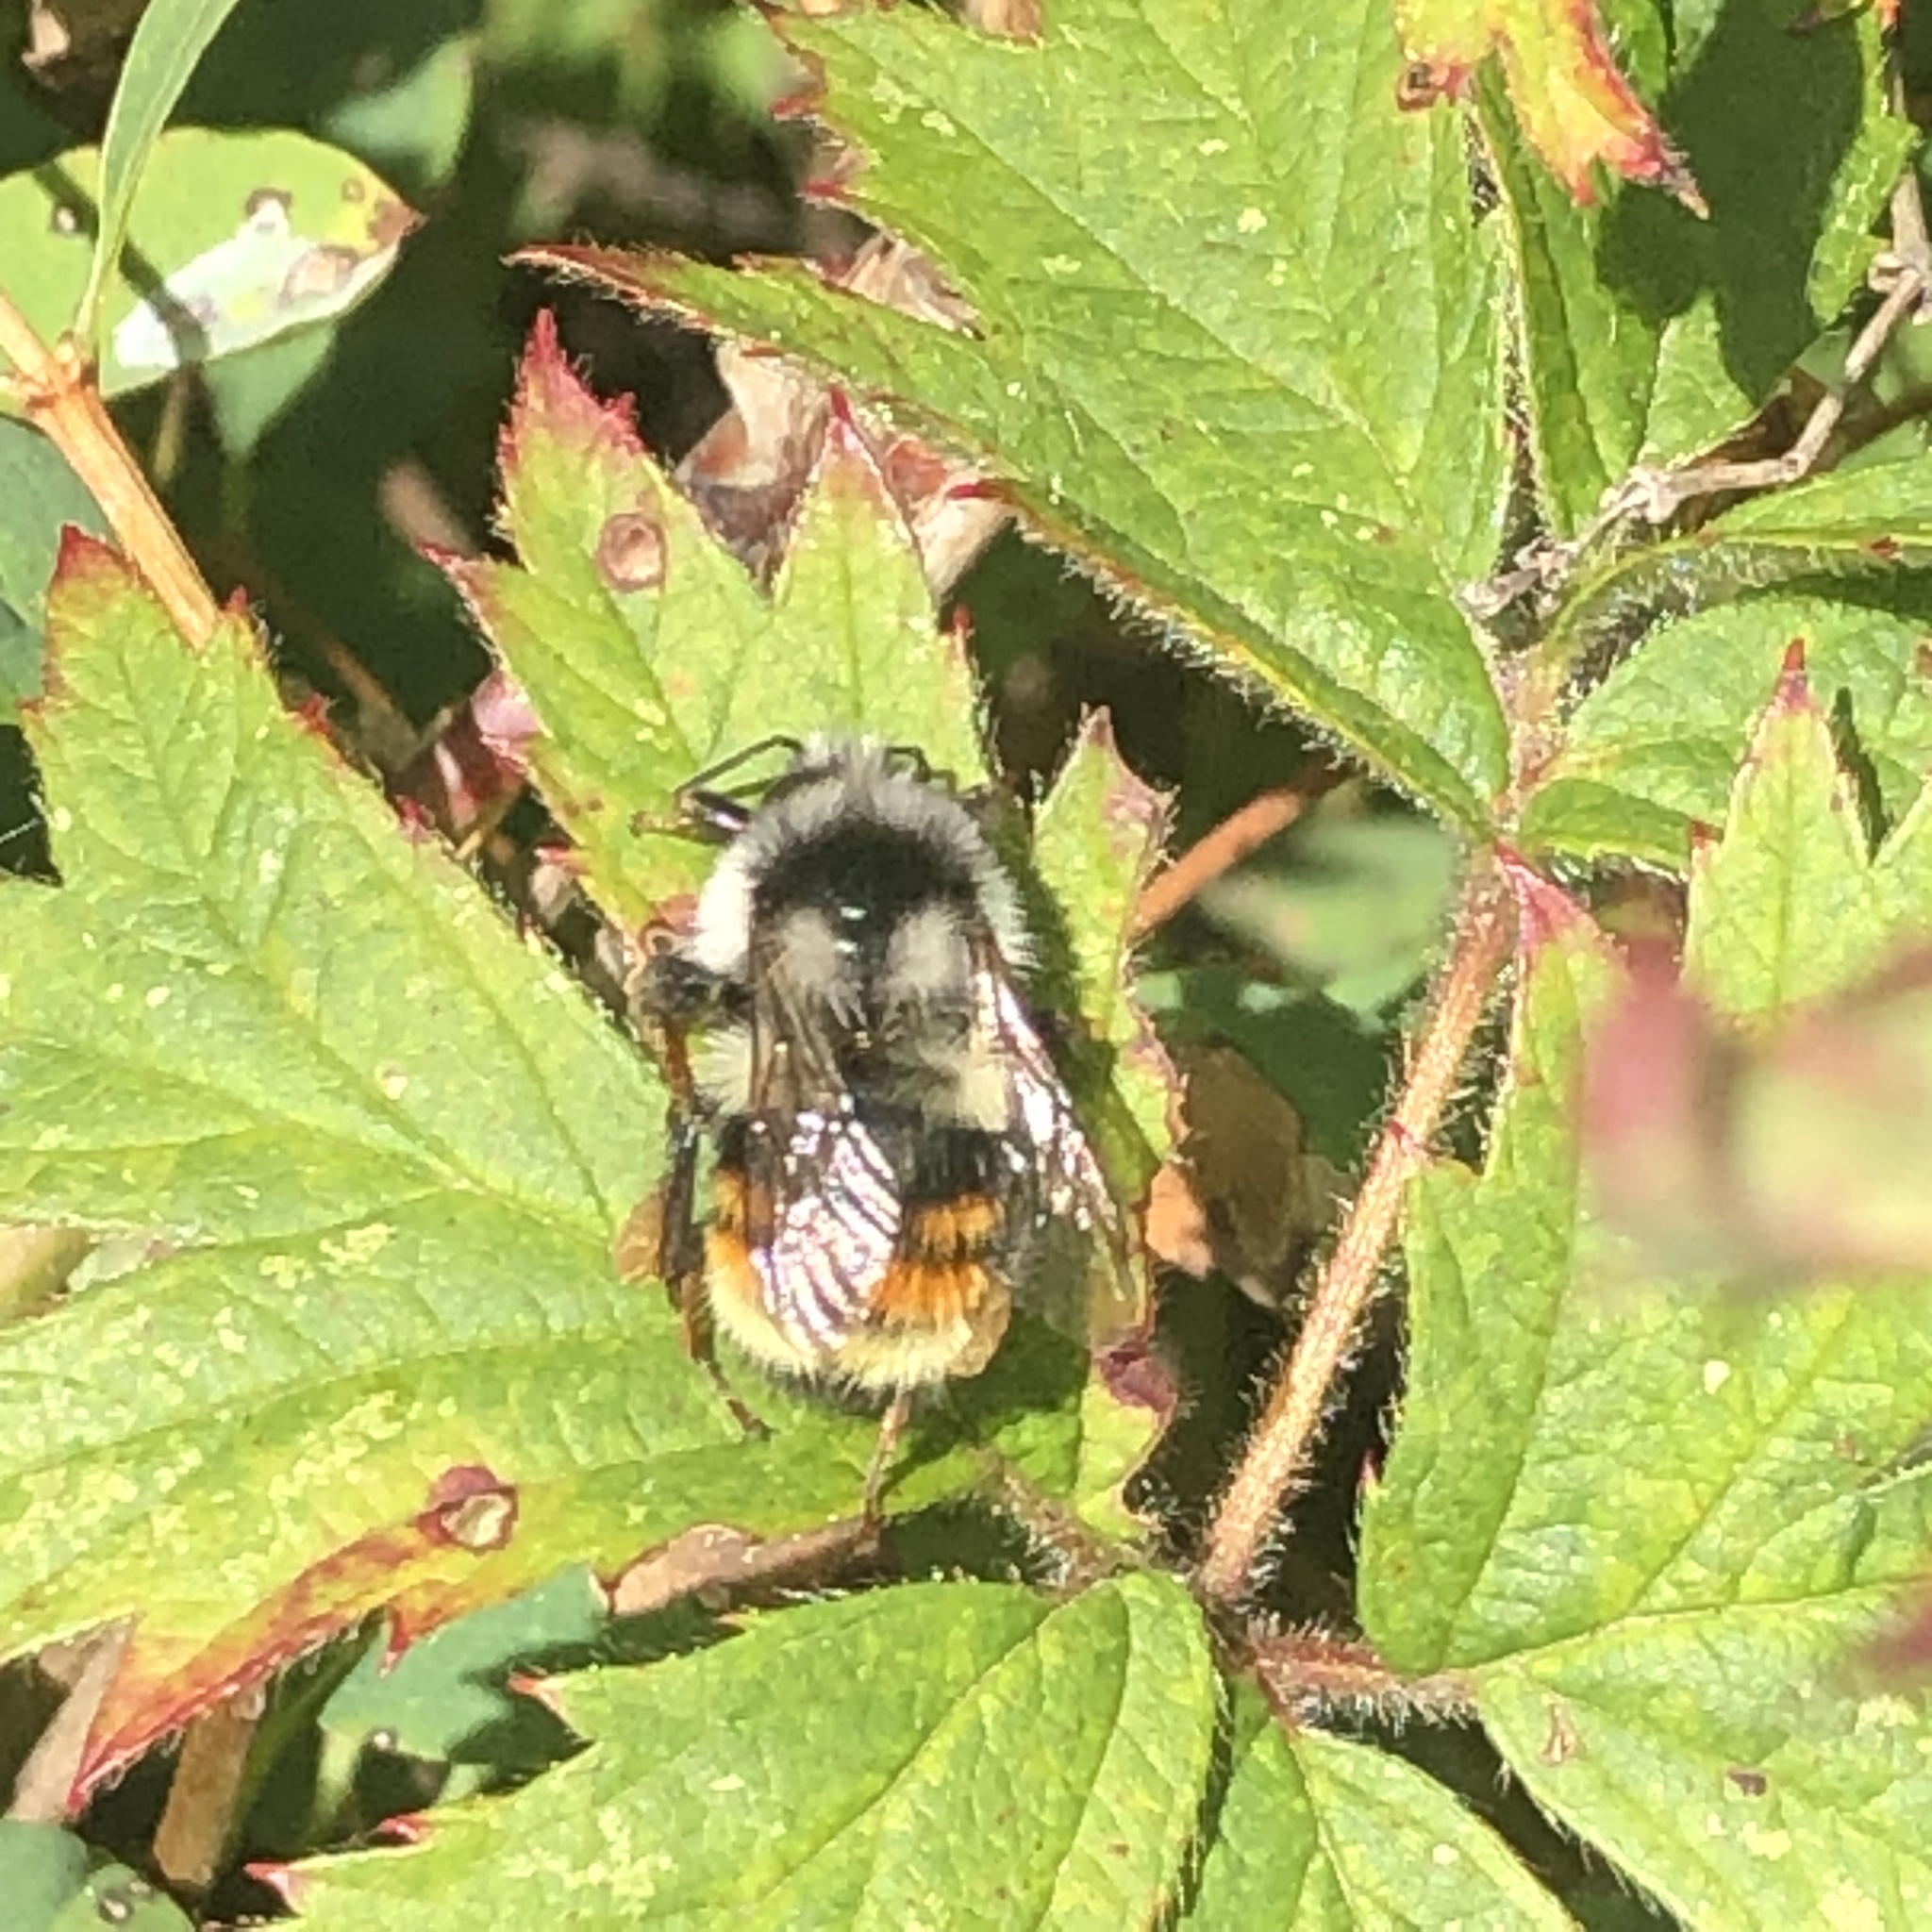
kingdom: Animalia
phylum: Arthropoda
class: Insecta
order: Hymenoptera
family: Apidae
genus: Bombus
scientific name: Bombus vancouverensis
